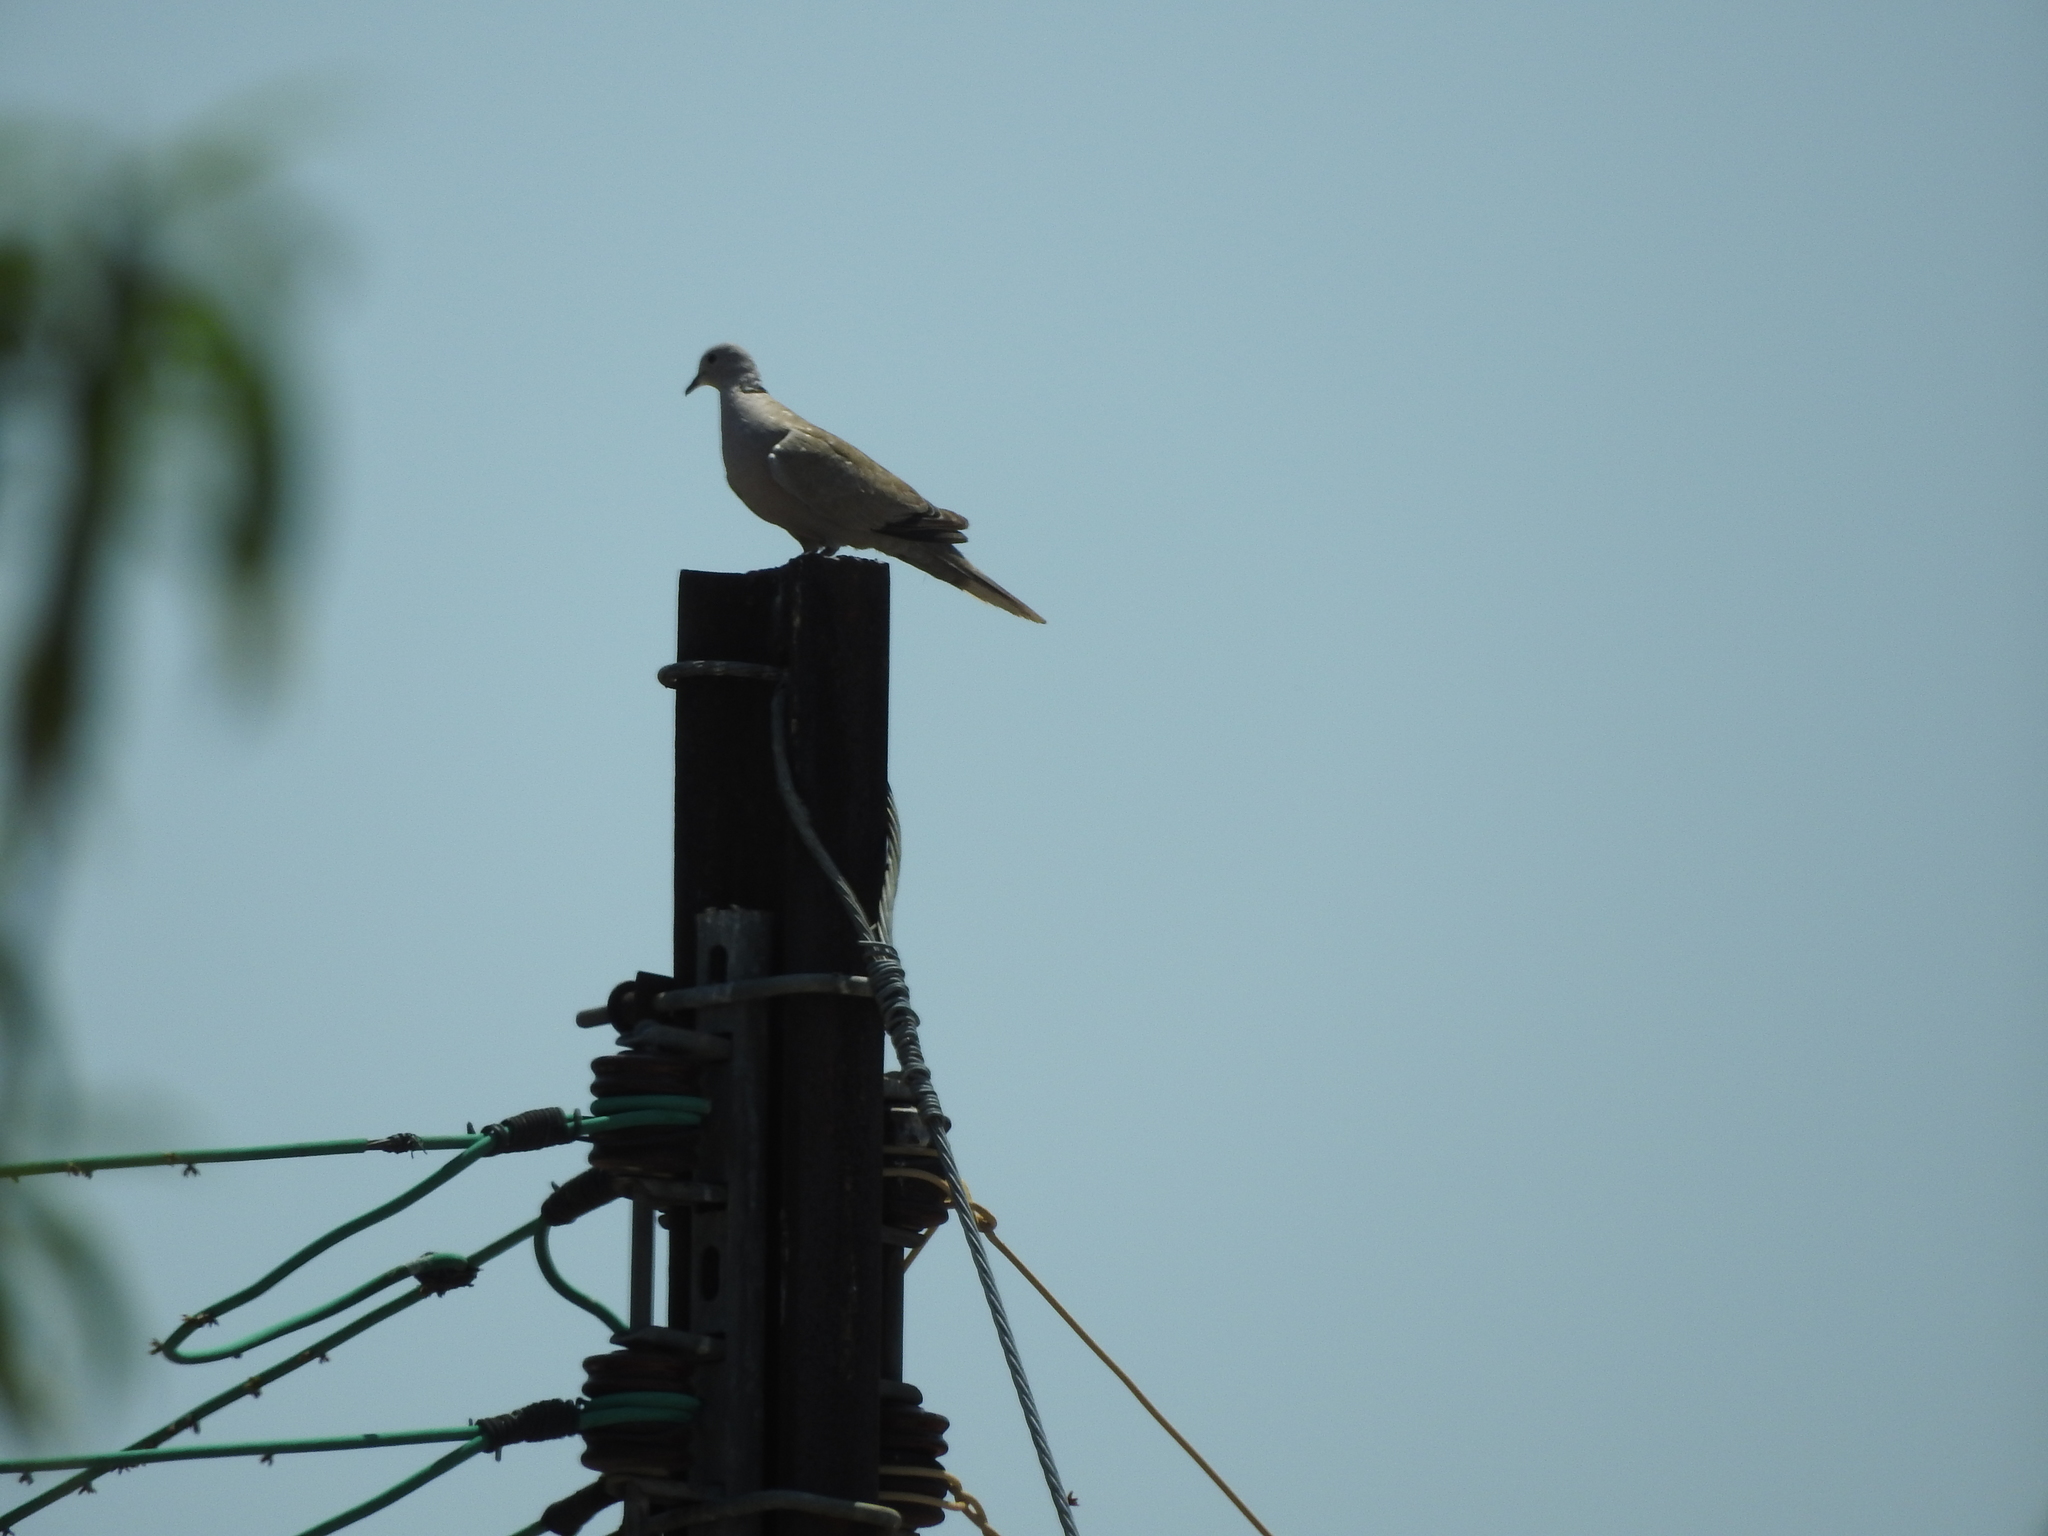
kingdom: Animalia
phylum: Chordata
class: Aves
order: Columbiformes
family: Columbidae
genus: Streptopelia
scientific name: Streptopelia decaocto
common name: Eurasian collared dove
